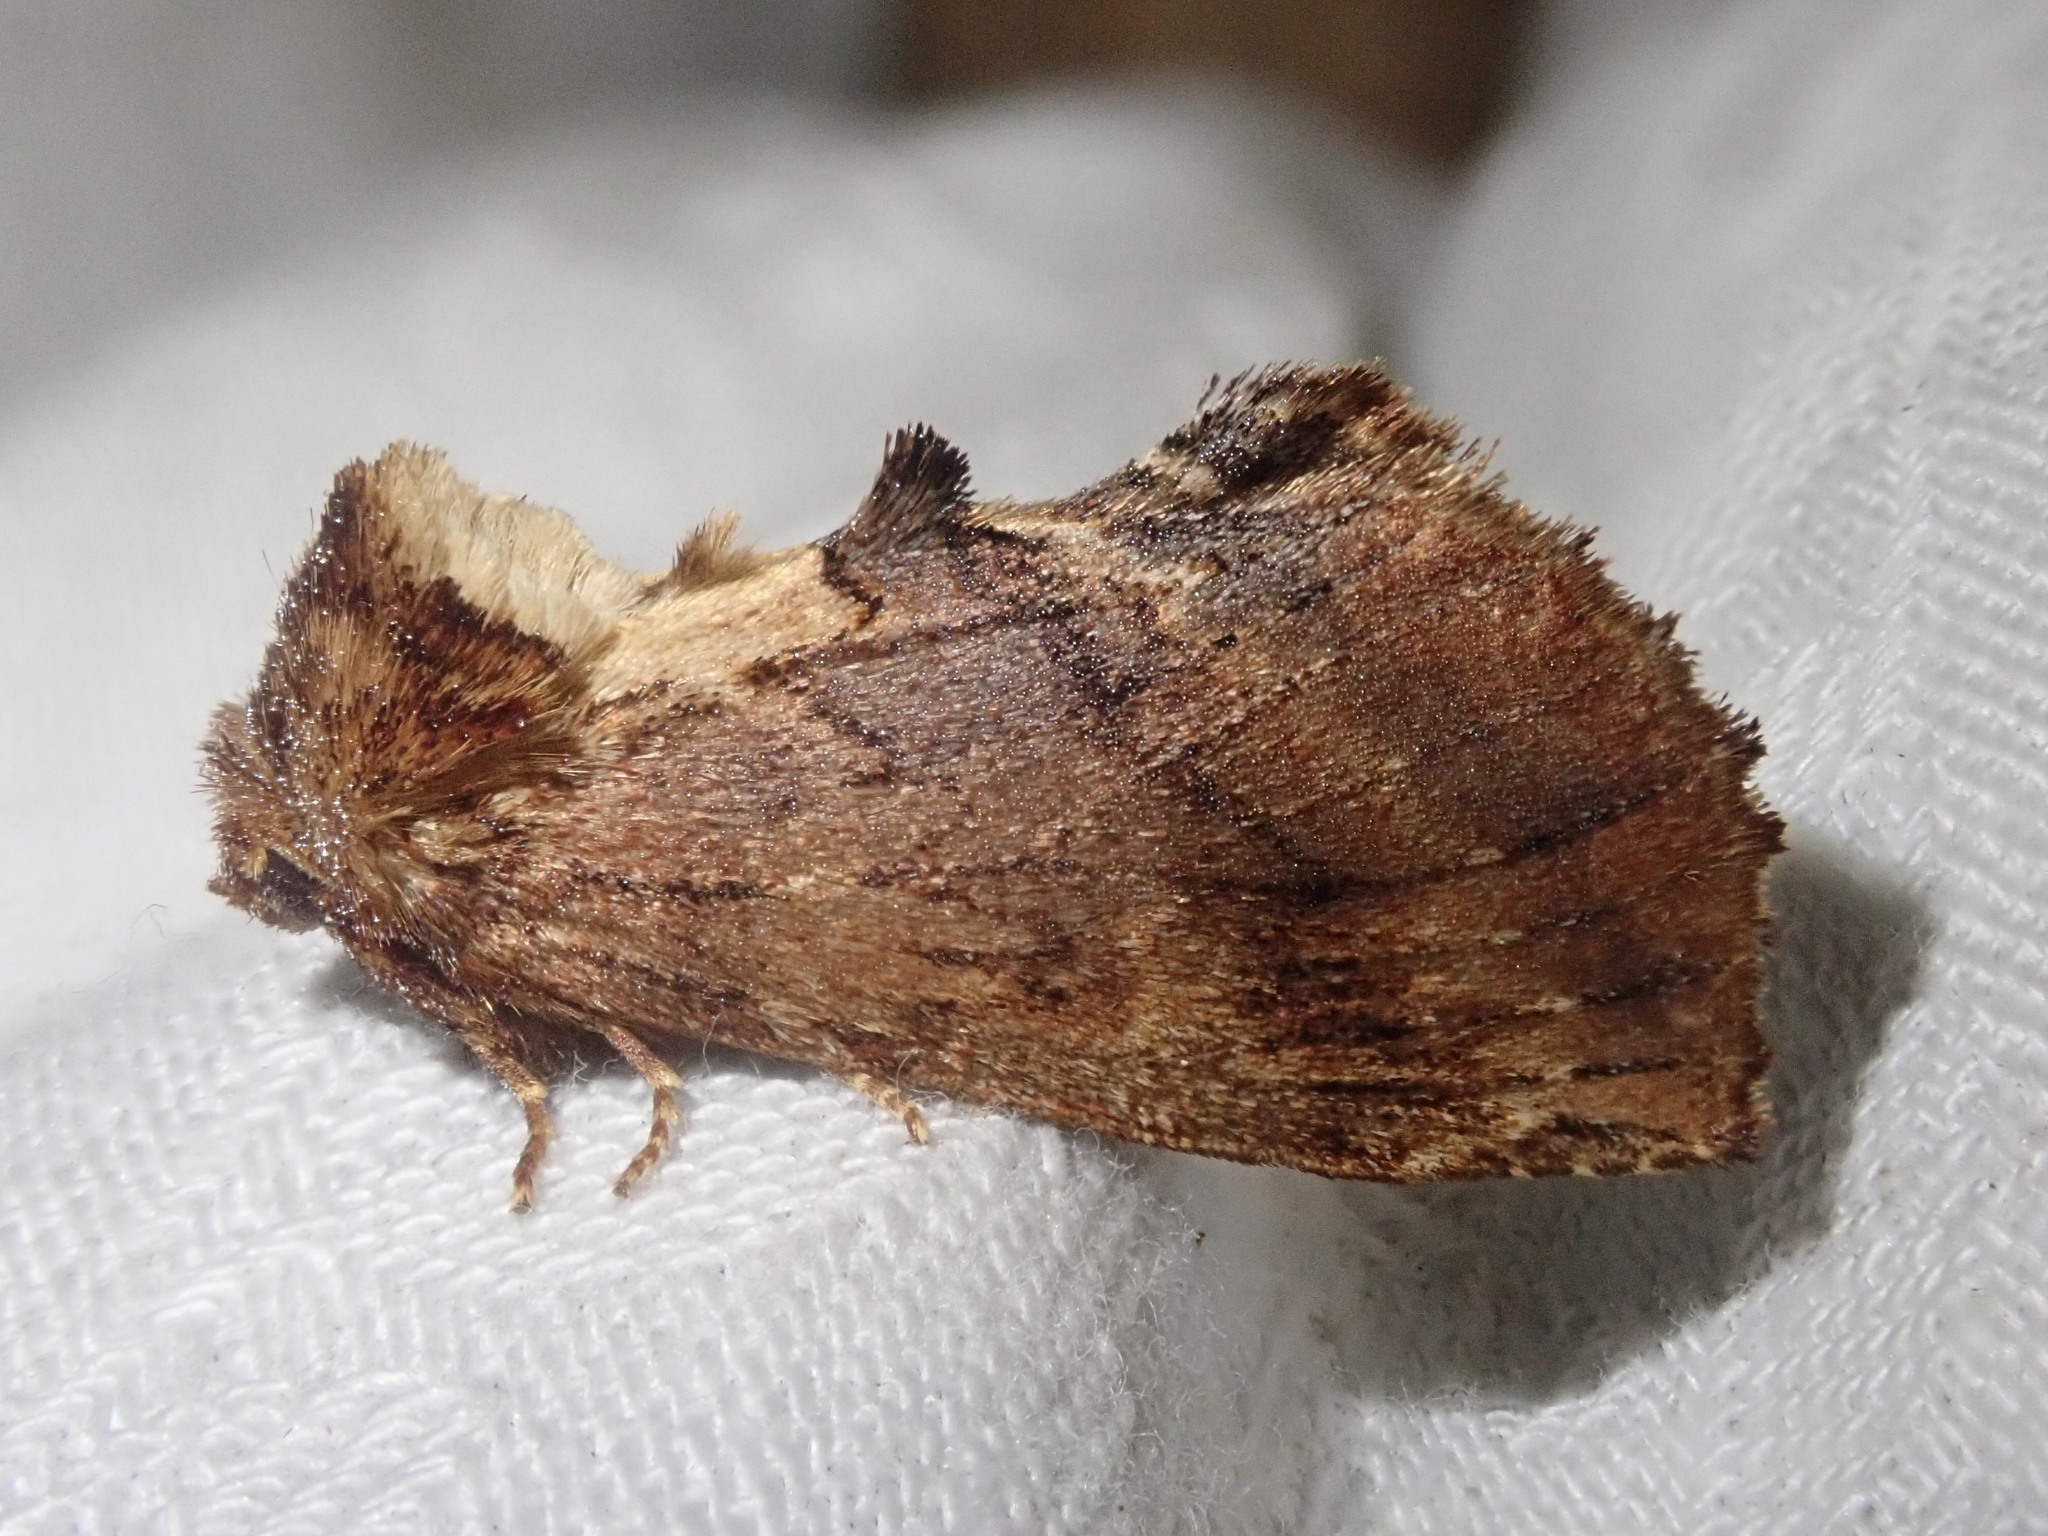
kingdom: Animalia
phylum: Arthropoda
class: Insecta
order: Lepidoptera
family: Notodontidae
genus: Ptilodon
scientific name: Ptilodon capucina
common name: Coxcomb prominent
